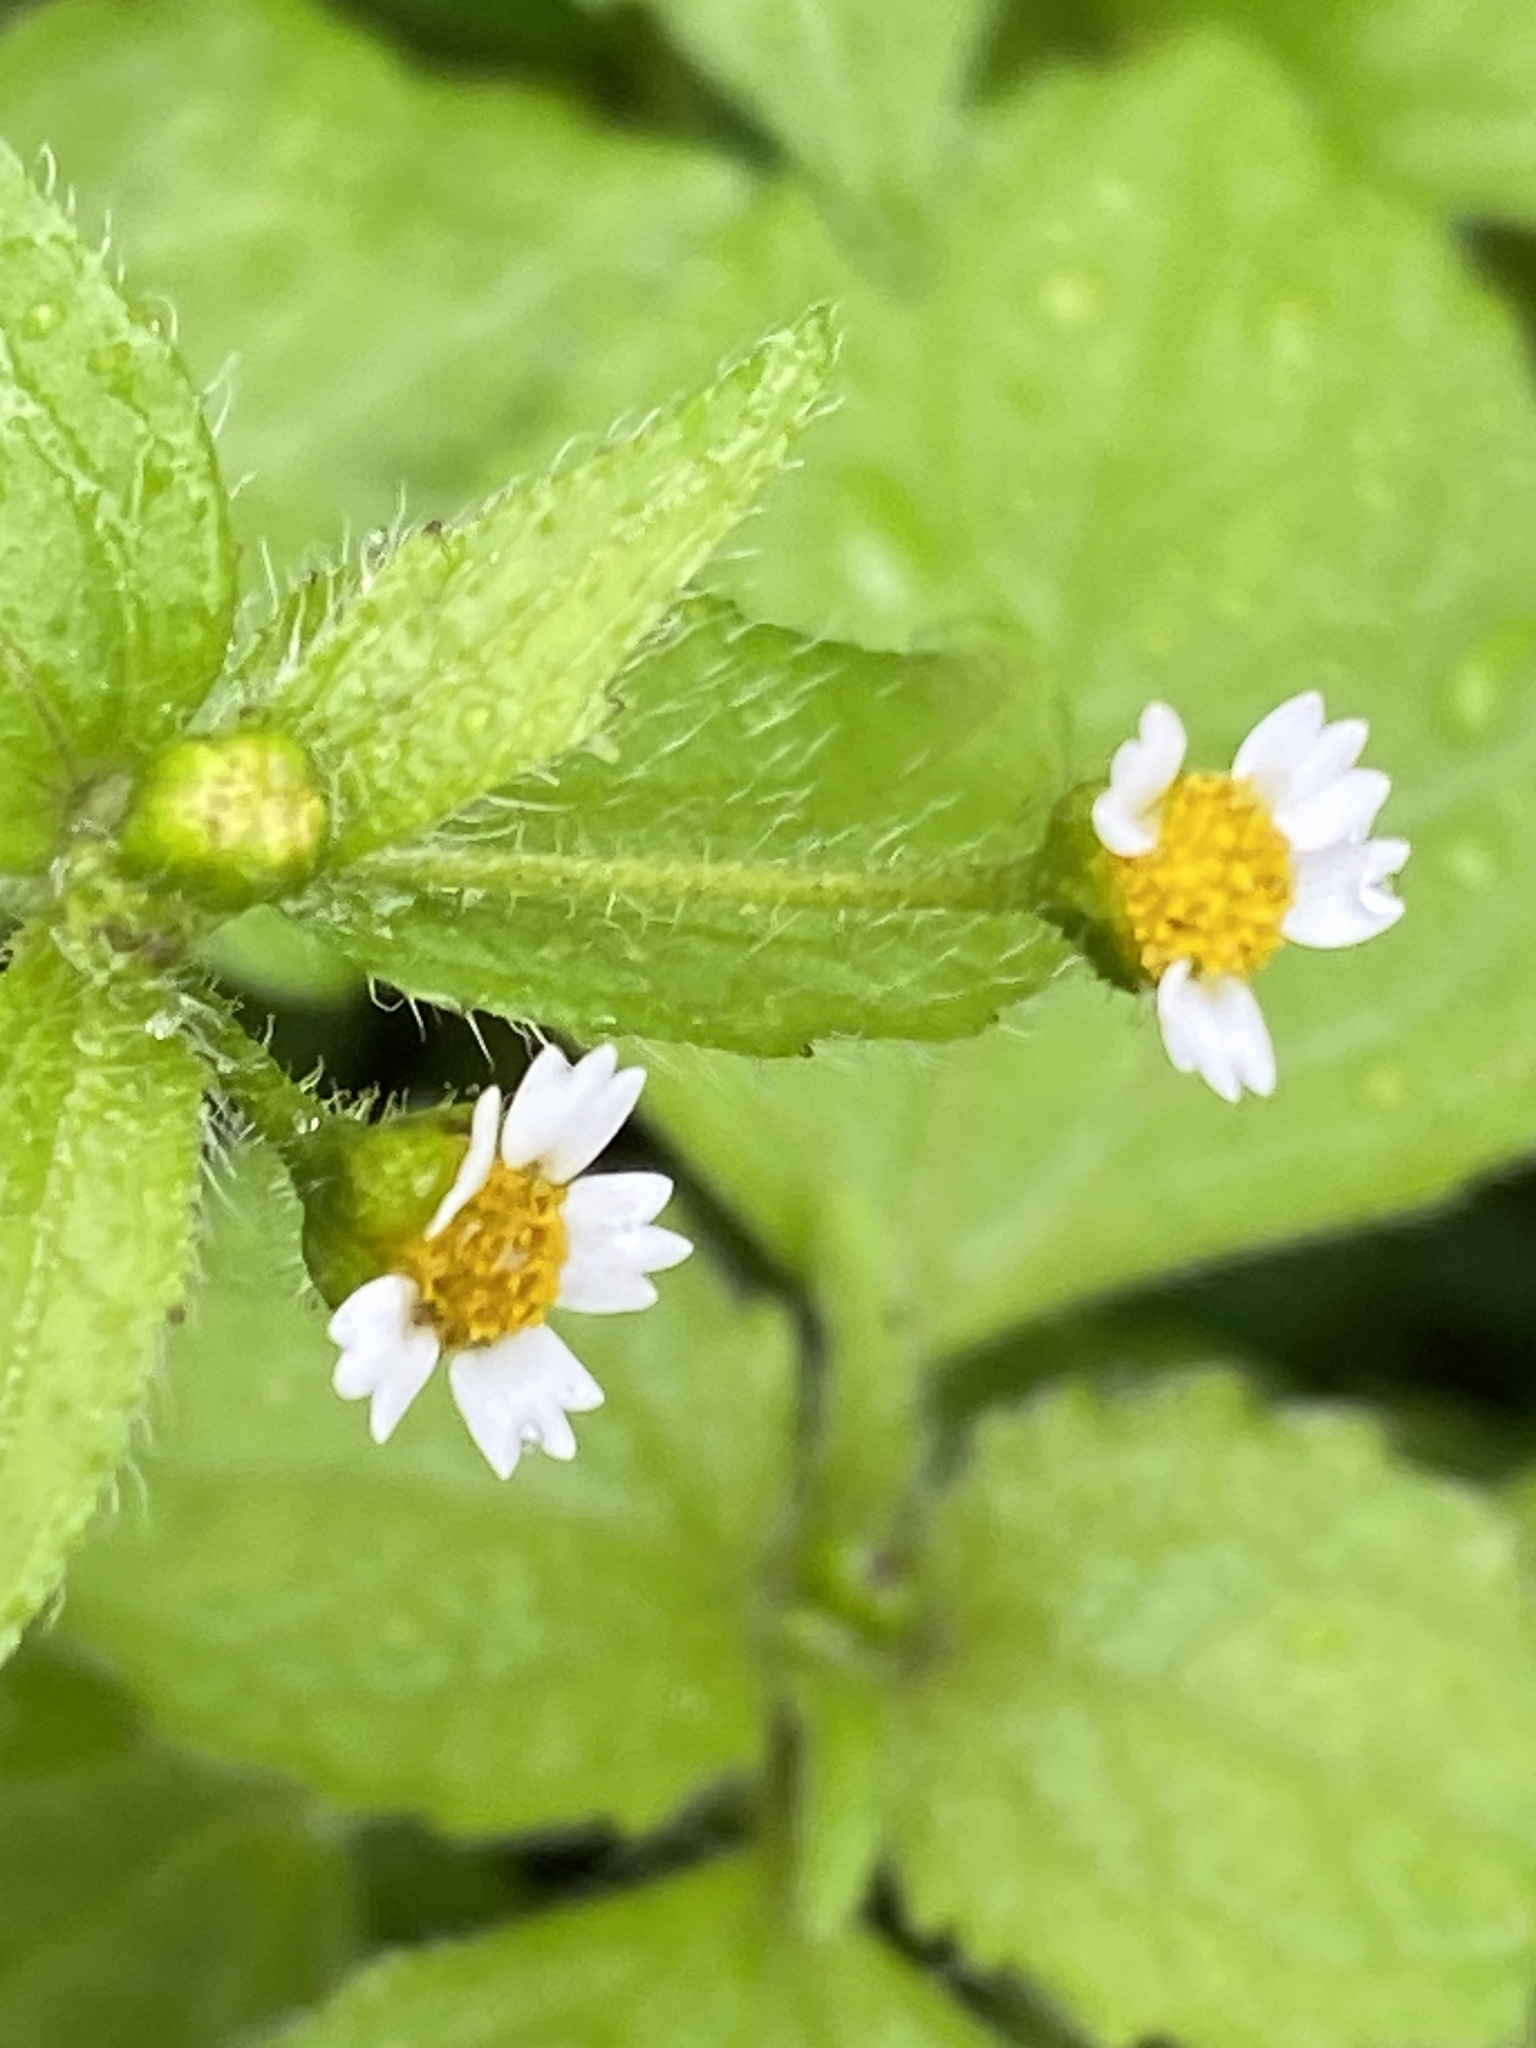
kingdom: Plantae
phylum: Tracheophyta
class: Magnoliopsida
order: Asterales
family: Asteraceae
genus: Galinsoga
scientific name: Galinsoga quadriradiata
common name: Shaggy soldier
